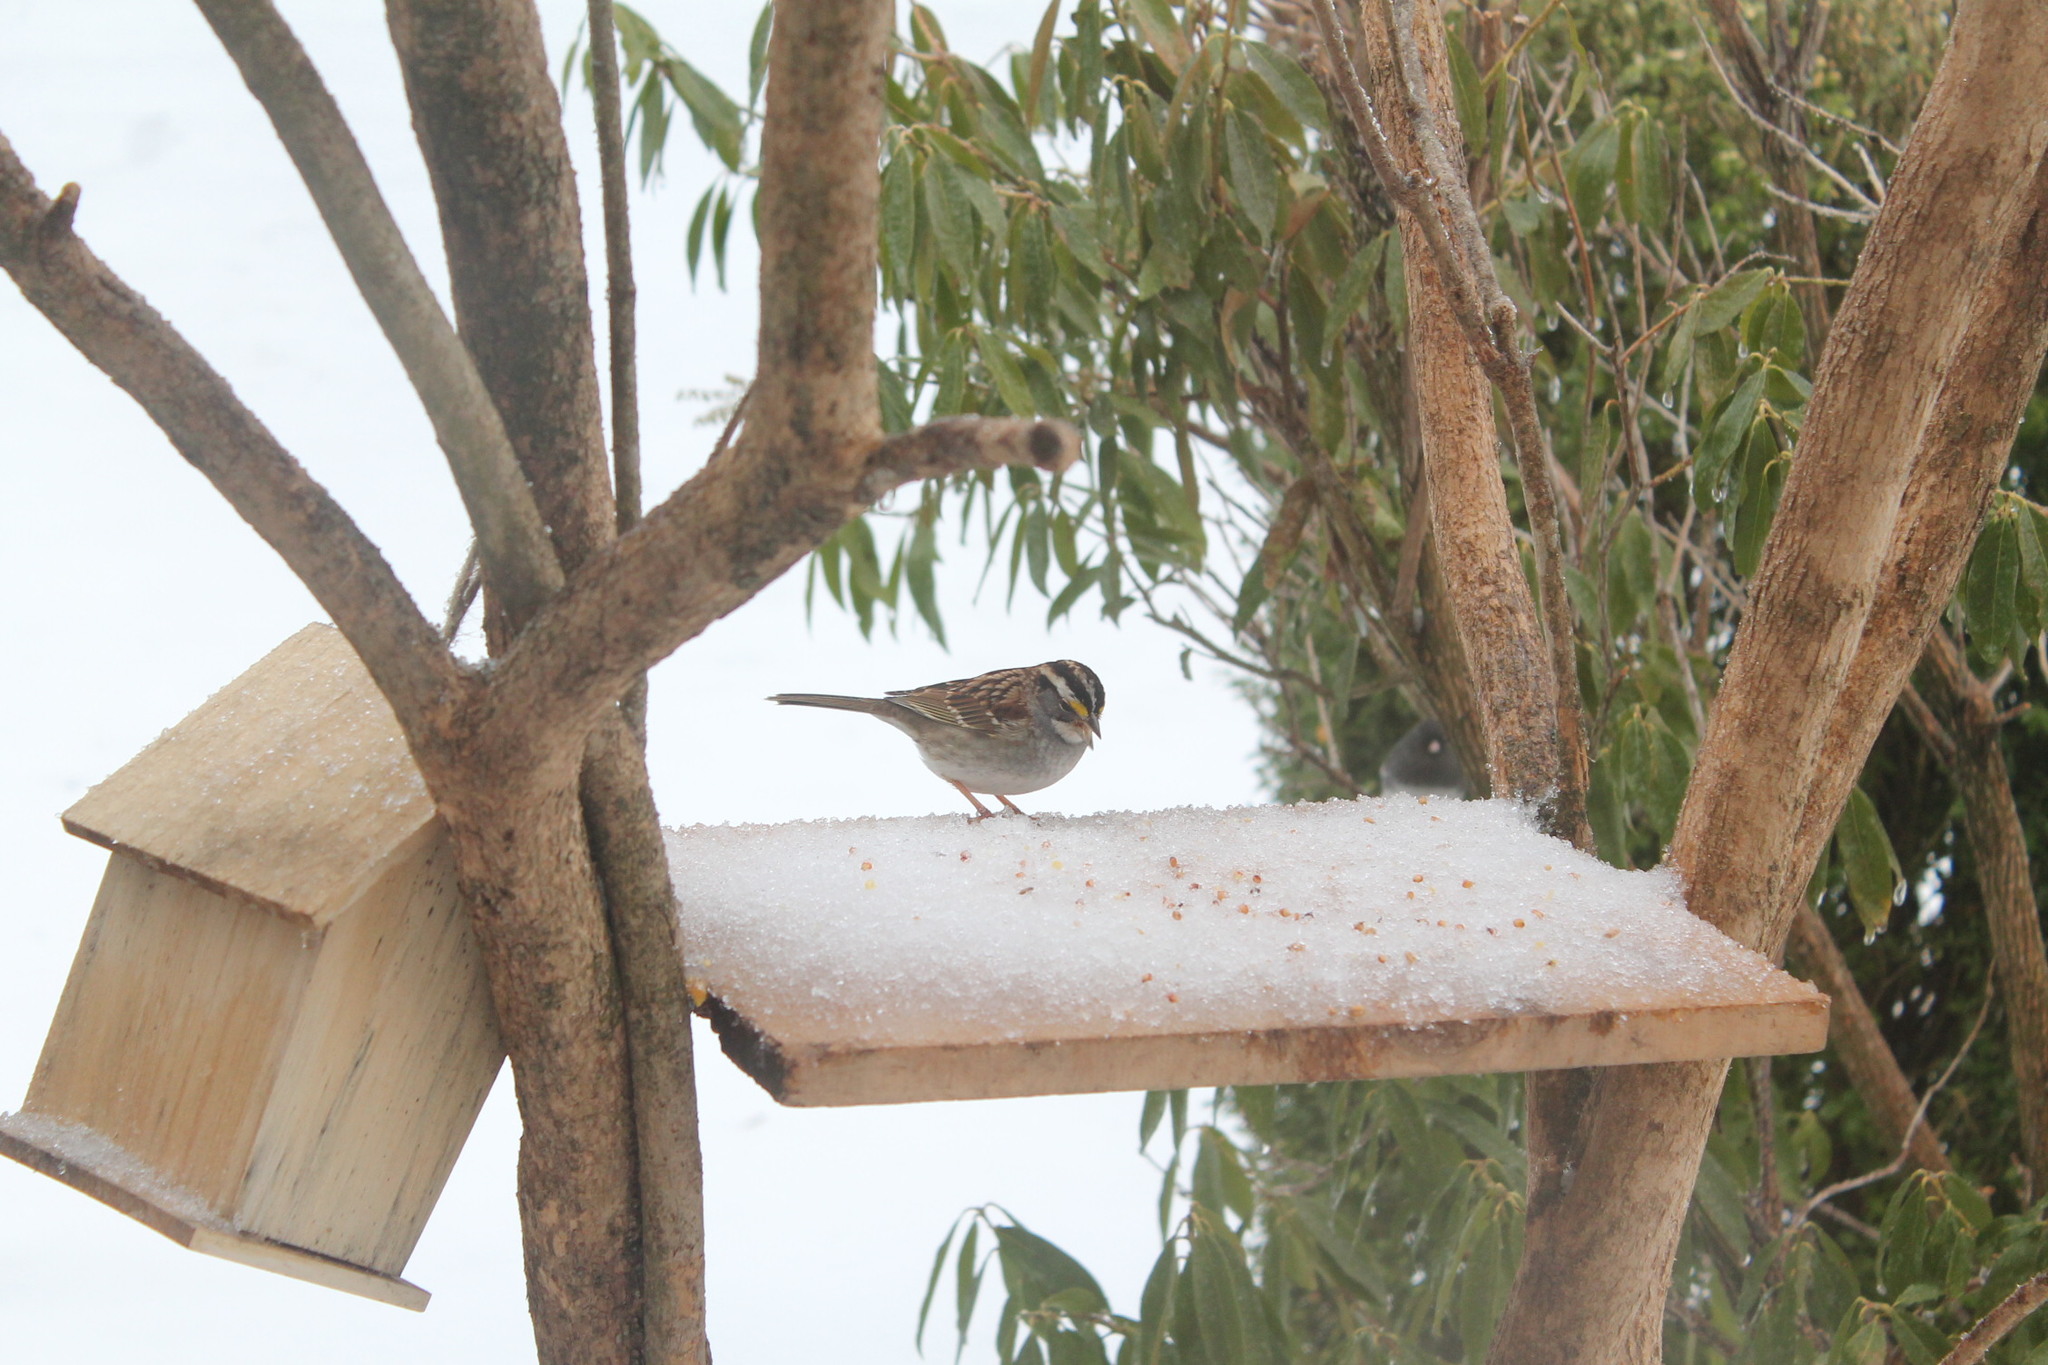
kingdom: Animalia
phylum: Chordata
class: Aves
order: Passeriformes
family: Passerellidae
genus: Zonotrichia
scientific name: Zonotrichia albicollis
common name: White-throated sparrow
